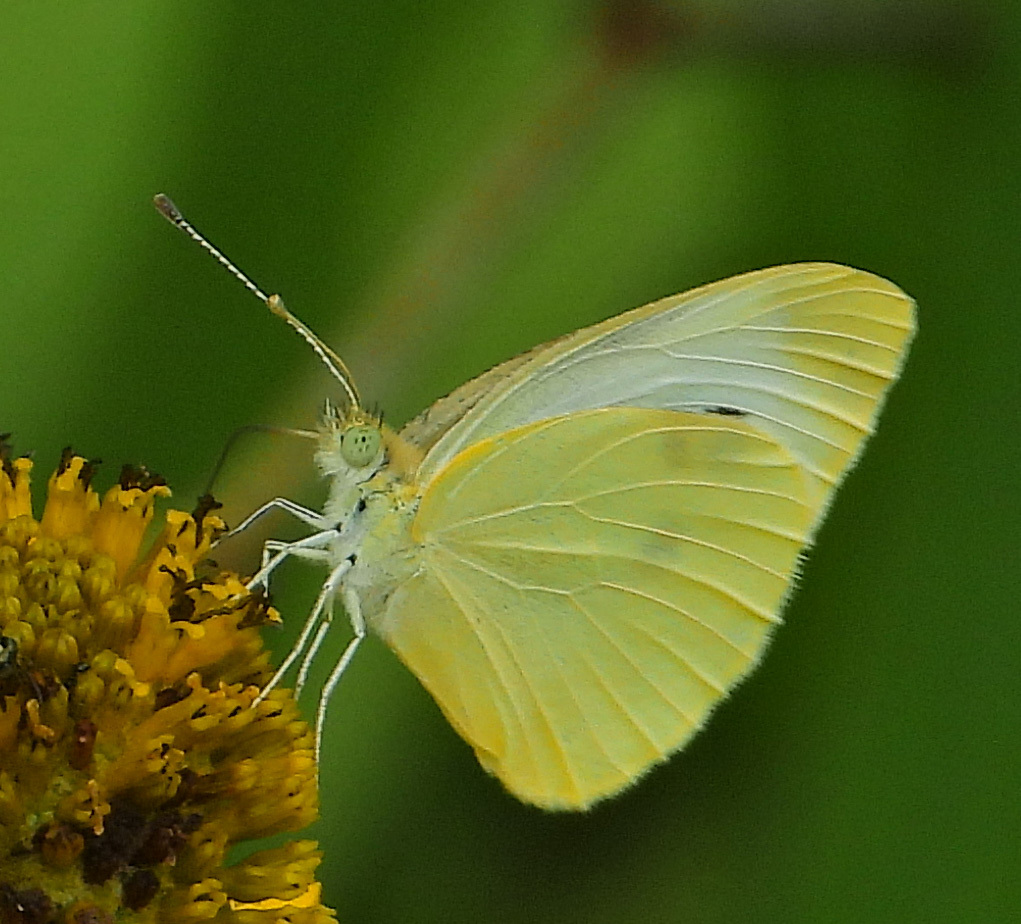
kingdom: Animalia
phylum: Arthropoda
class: Insecta
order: Lepidoptera
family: Pieridae
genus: Pieris
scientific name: Pieris rapae
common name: Small white
